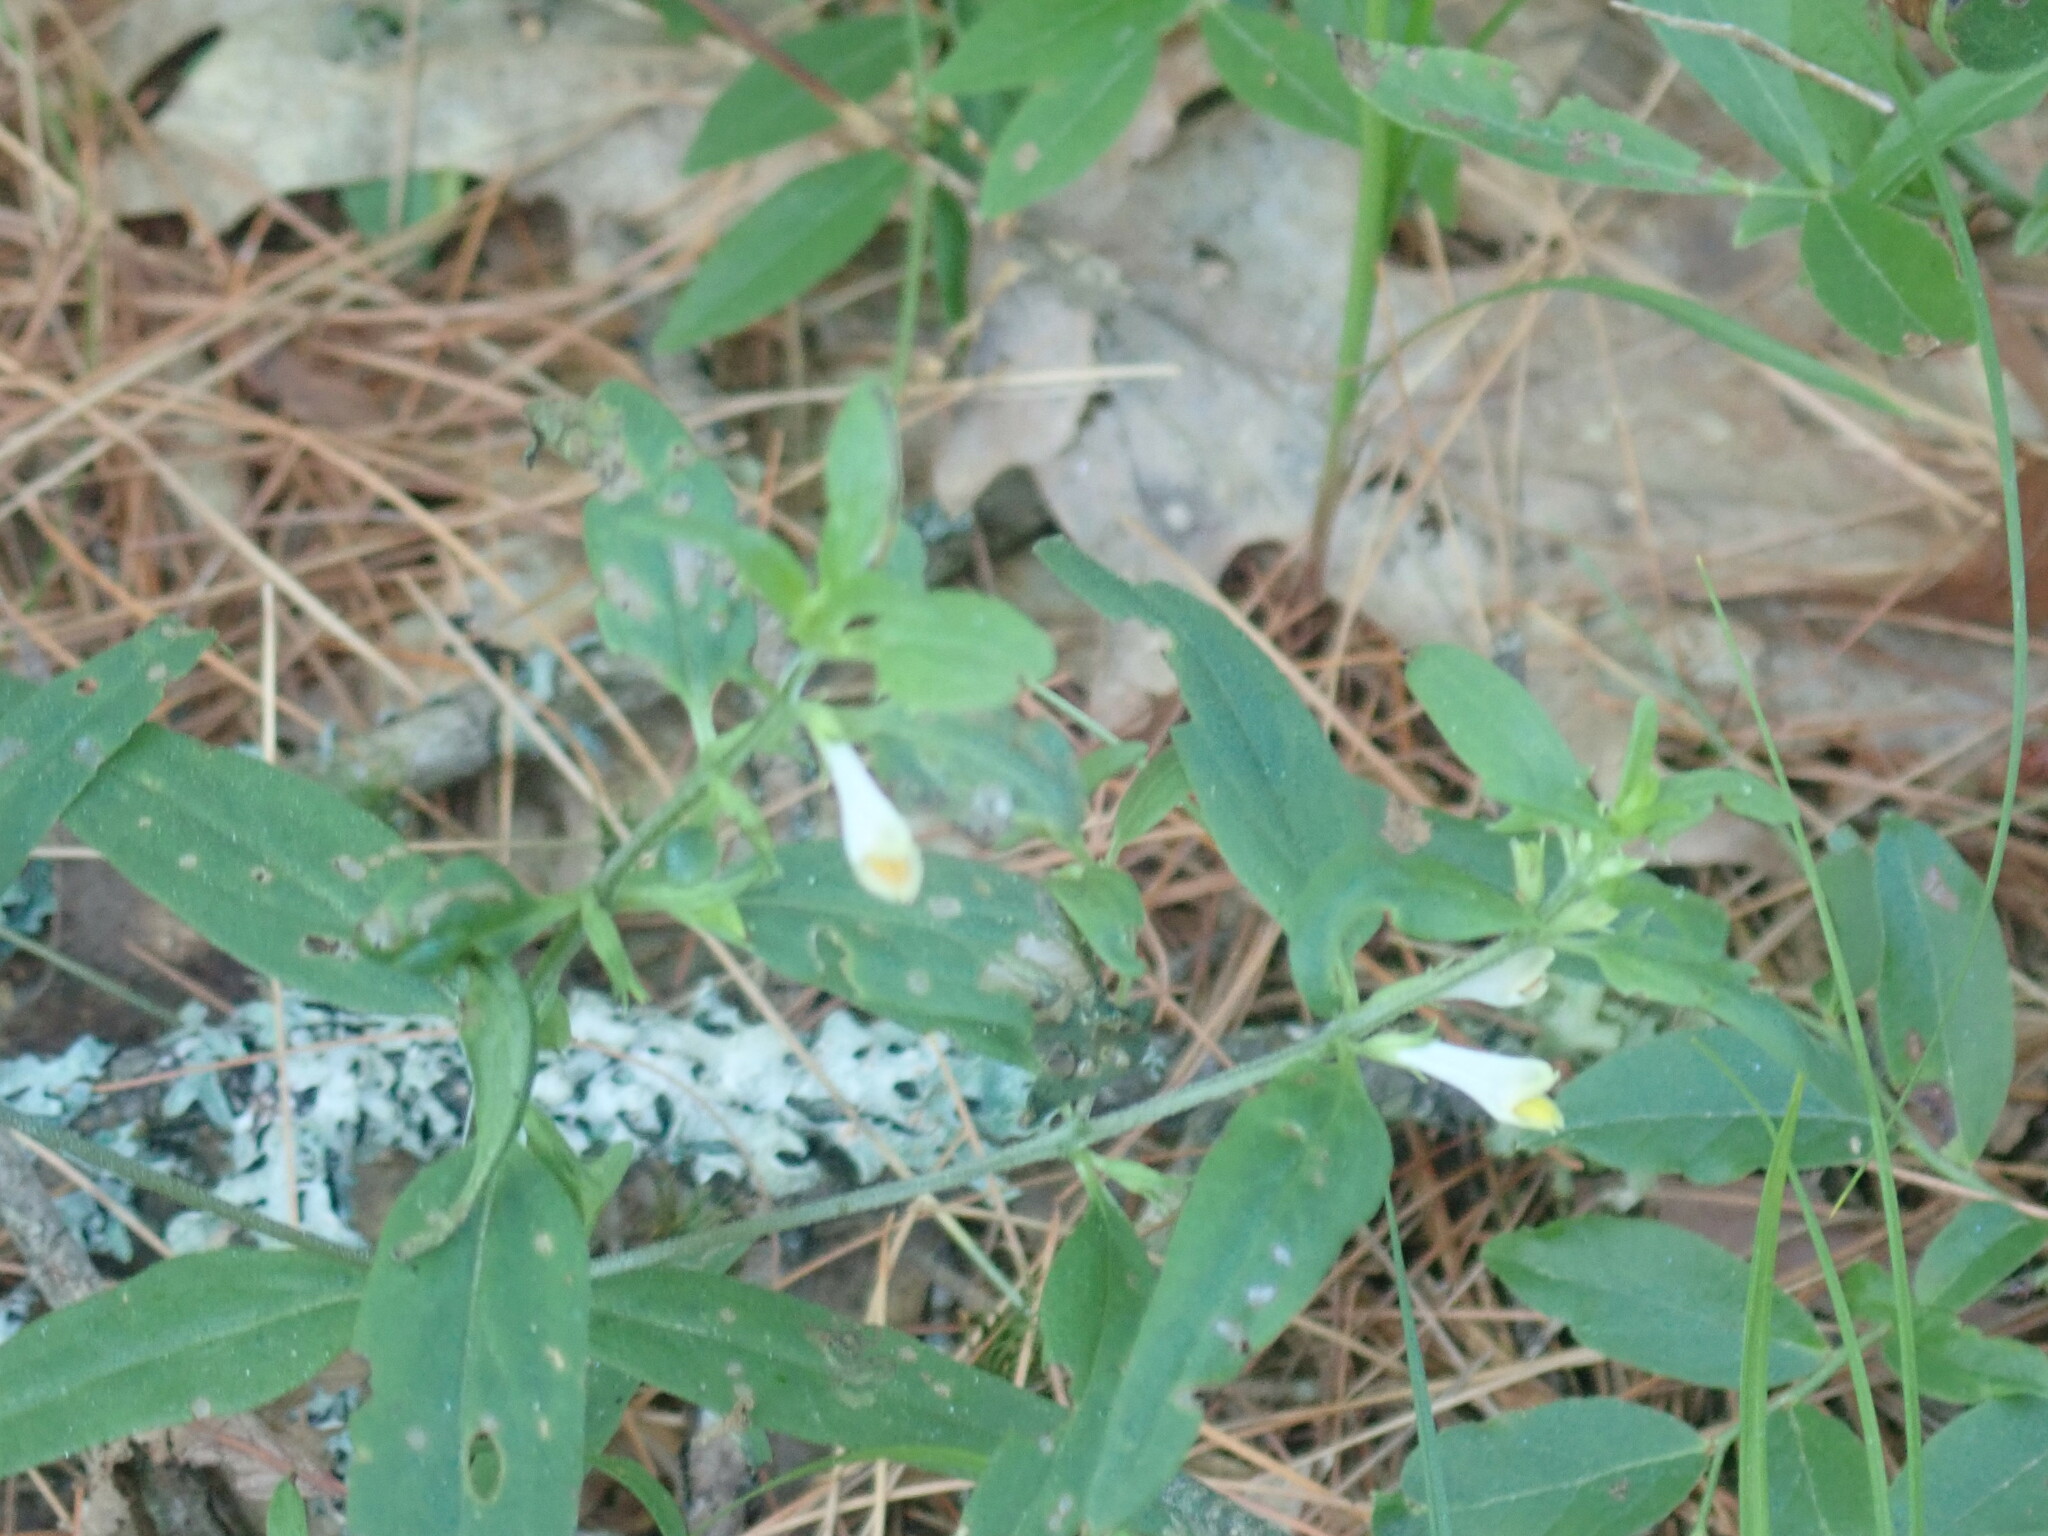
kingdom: Plantae
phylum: Tracheophyta
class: Magnoliopsida
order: Lamiales
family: Orobanchaceae
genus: Melampyrum
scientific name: Melampyrum lineare
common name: American cow-wheat
